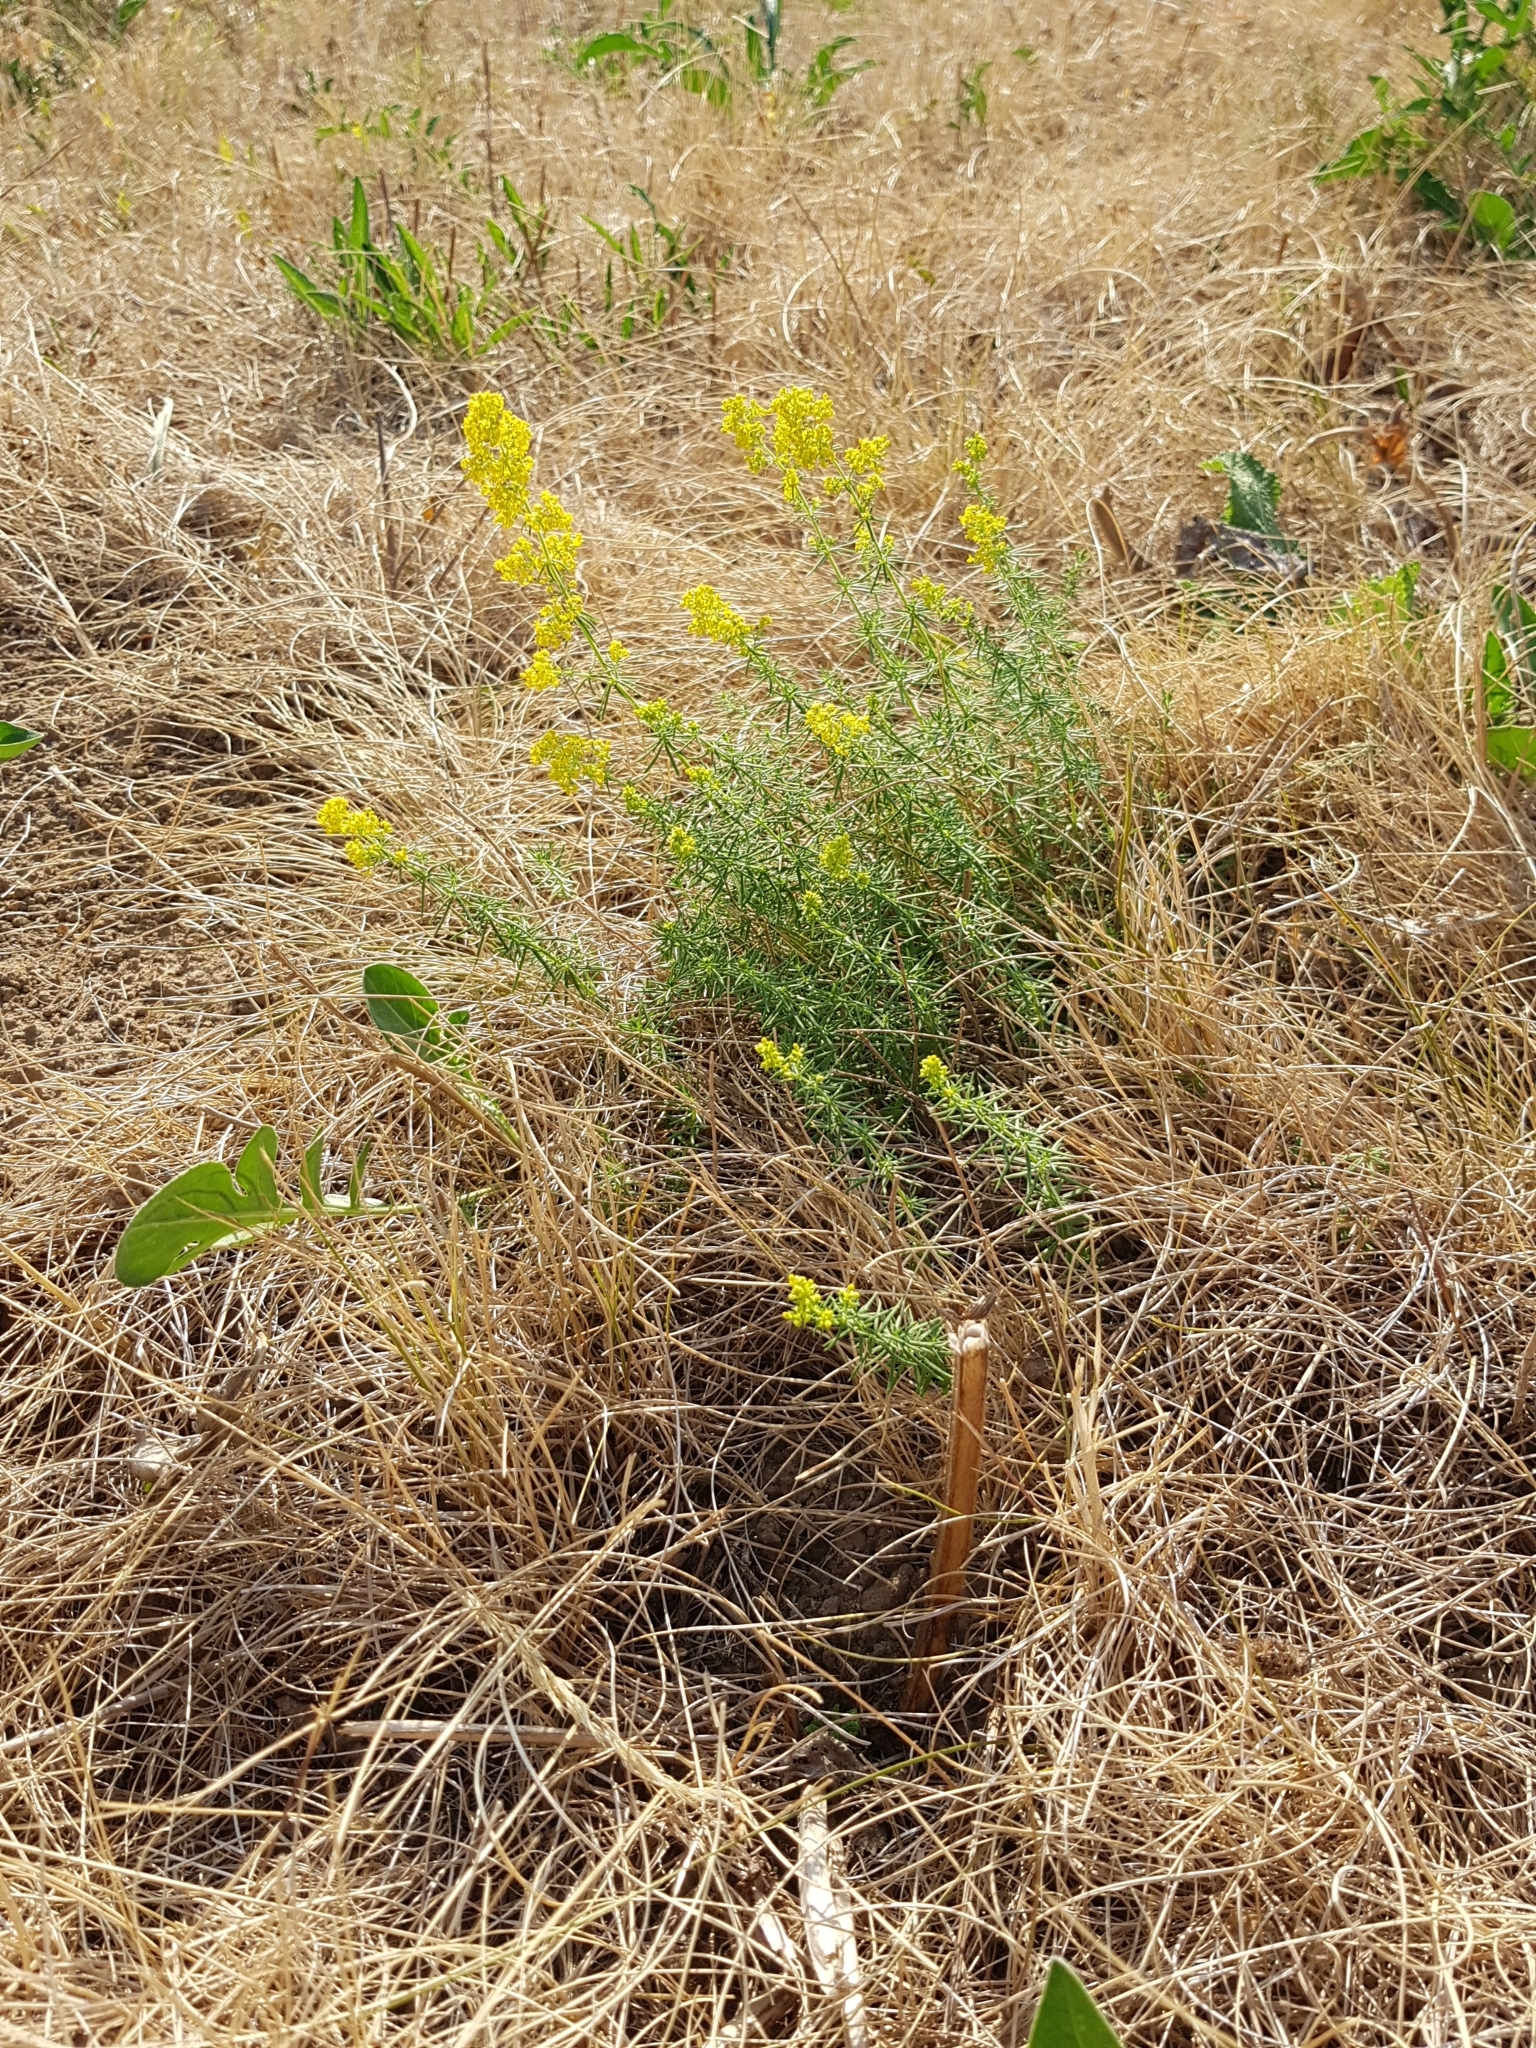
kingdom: Plantae
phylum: Tracheophyta
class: Magnoliopsida
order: Gentianales
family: Rubiaceae
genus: Galium
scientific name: Galium verum
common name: Lady's bedstraw
